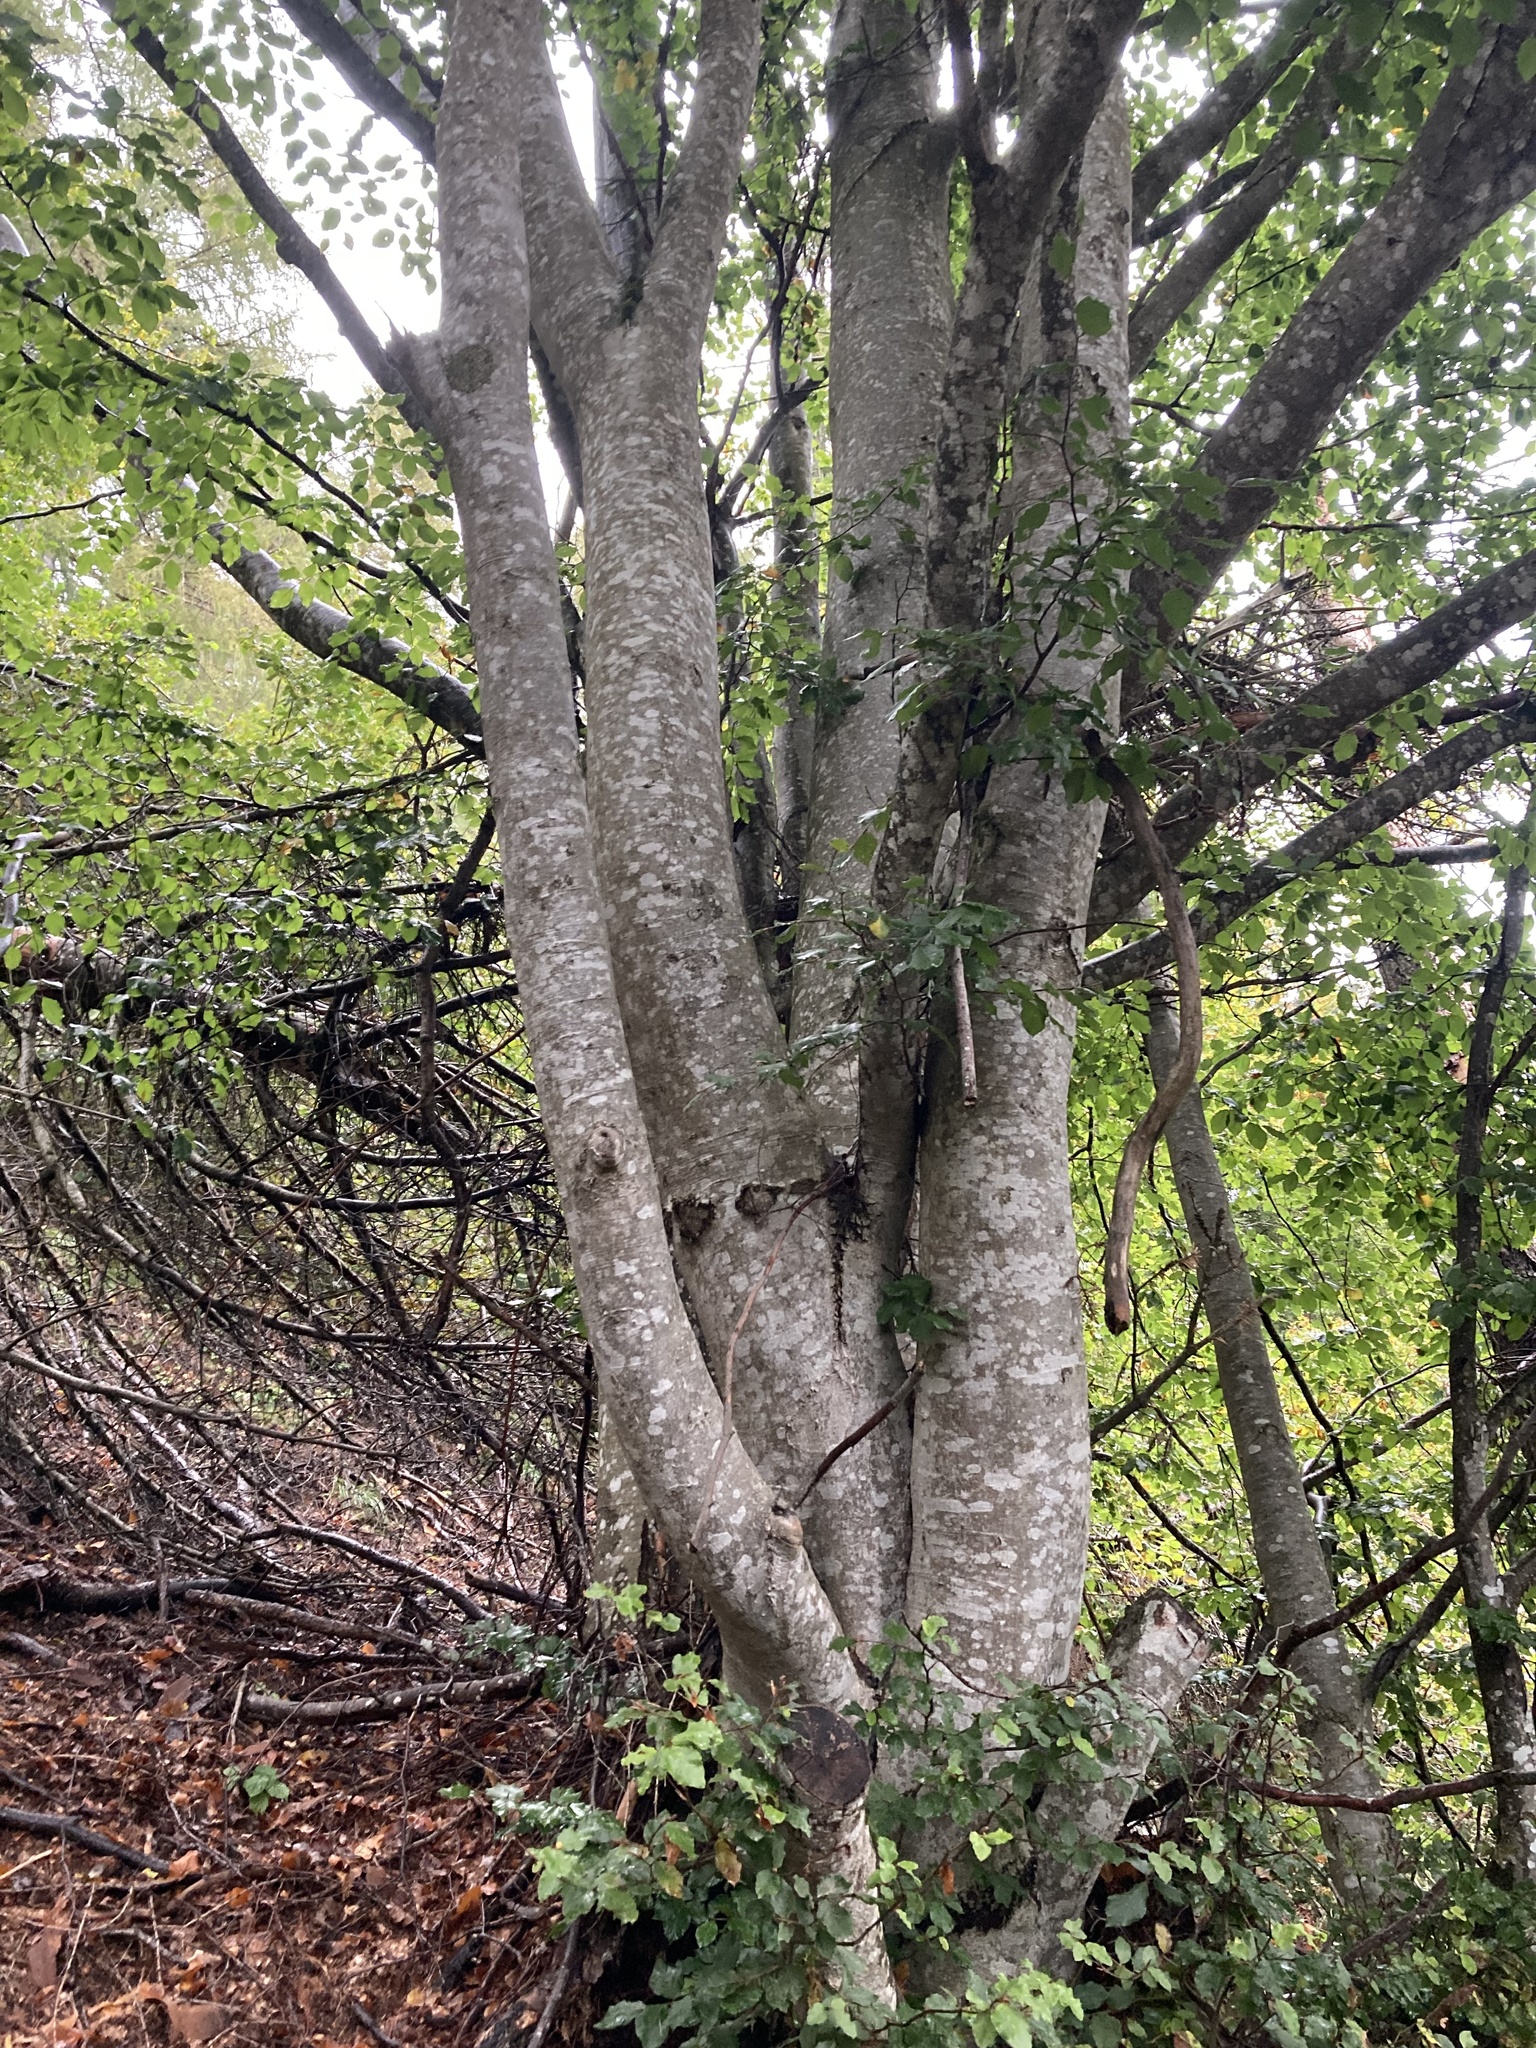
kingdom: Plantae
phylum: Tracheophyta
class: Magnoliopsida
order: Fagales
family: Fagaceae
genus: Fagus
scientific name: Fagus sylvatica
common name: Beech
